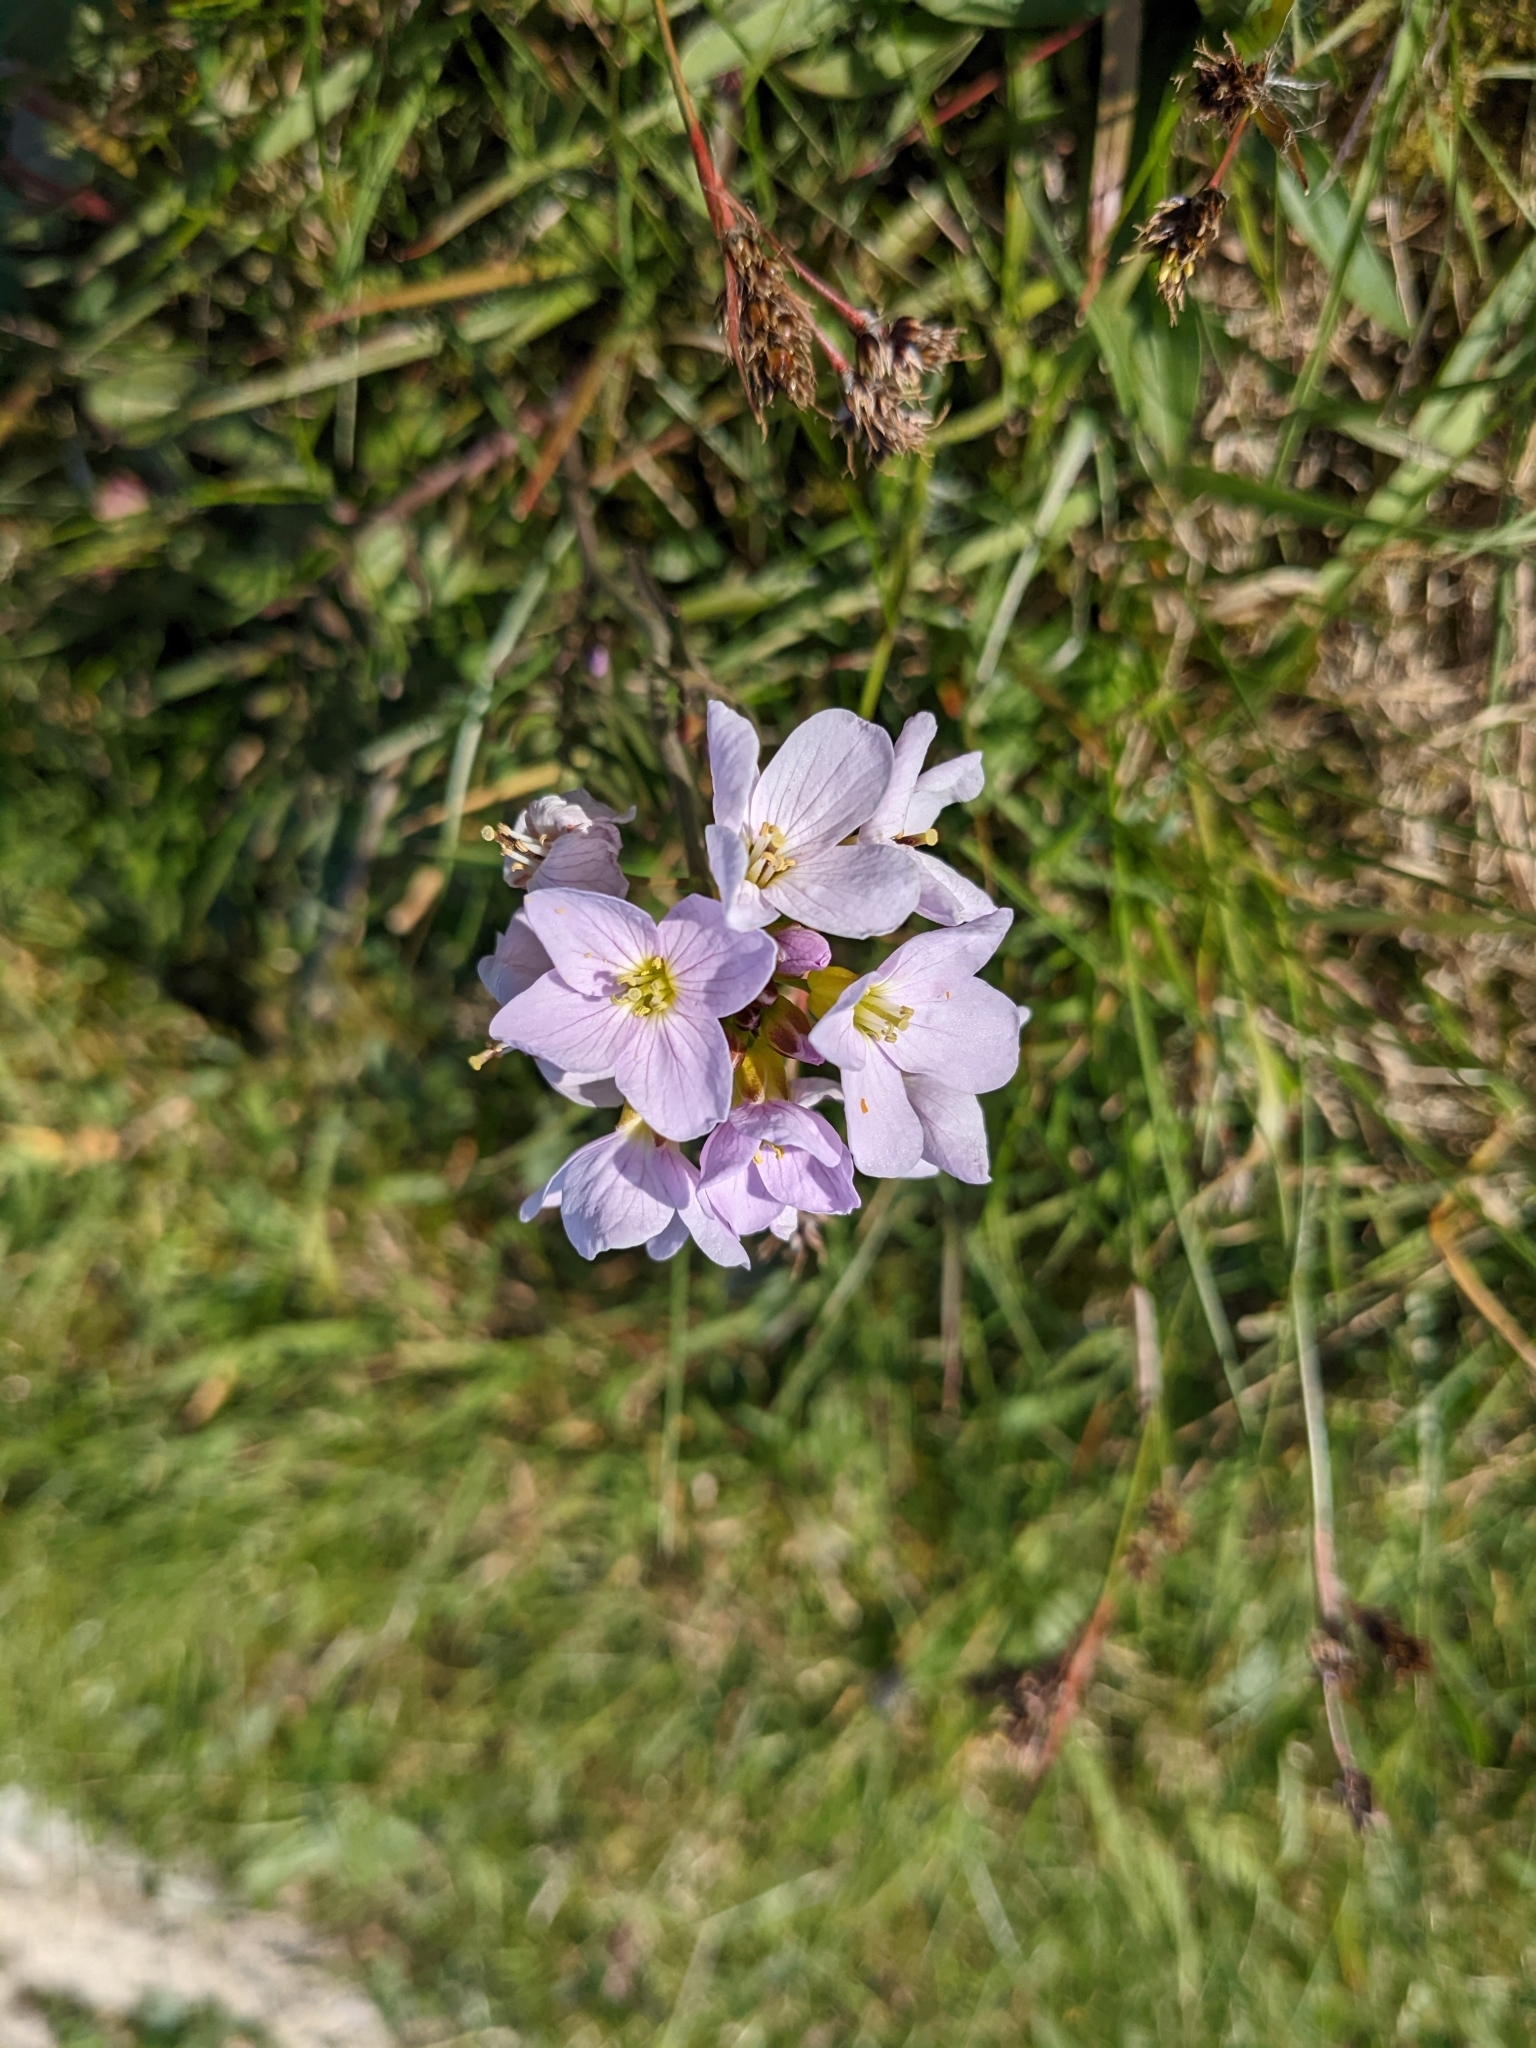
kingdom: Plantae
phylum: Tracheophyta
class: Magnoliopsida
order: Brassicales
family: Brassicaceae
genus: Cardamine
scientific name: Cardamine pratensis
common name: Cuckoo flower
